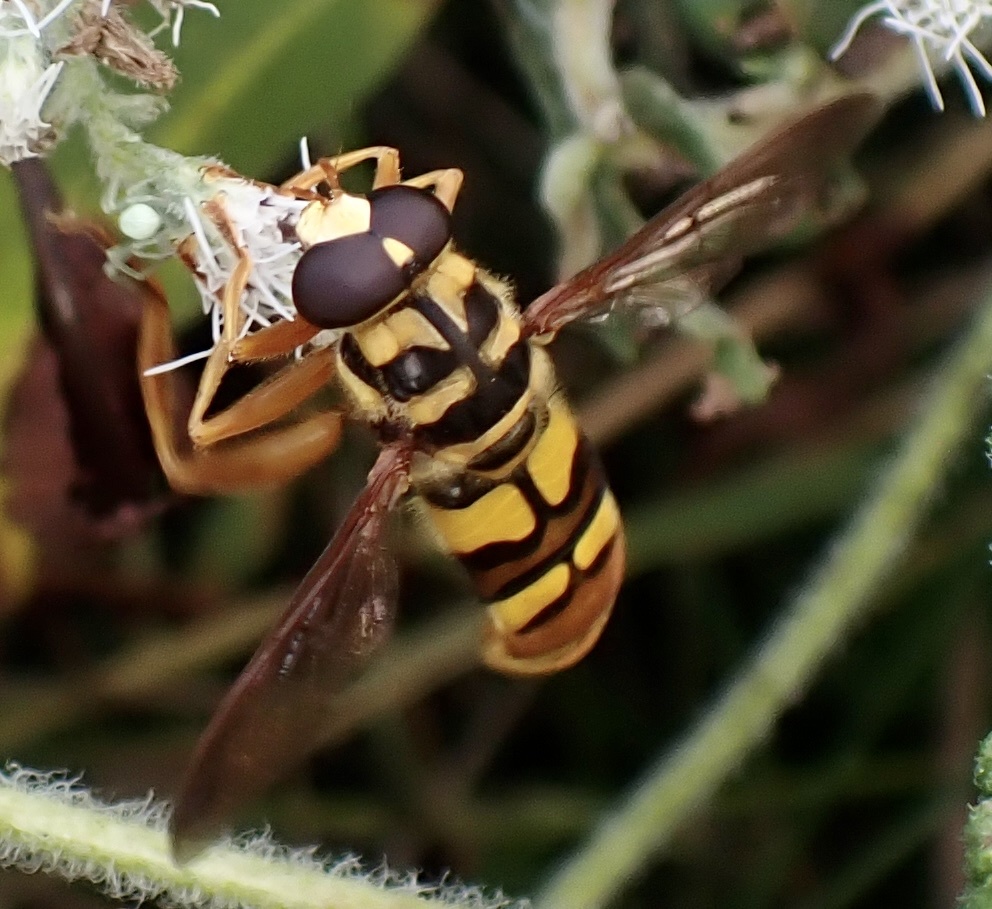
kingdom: Animalia
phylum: Arthropoda
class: Insecta
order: Diptera
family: Syrphidae
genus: Milesia
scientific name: Milesia virginiensis
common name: Virginia giant
